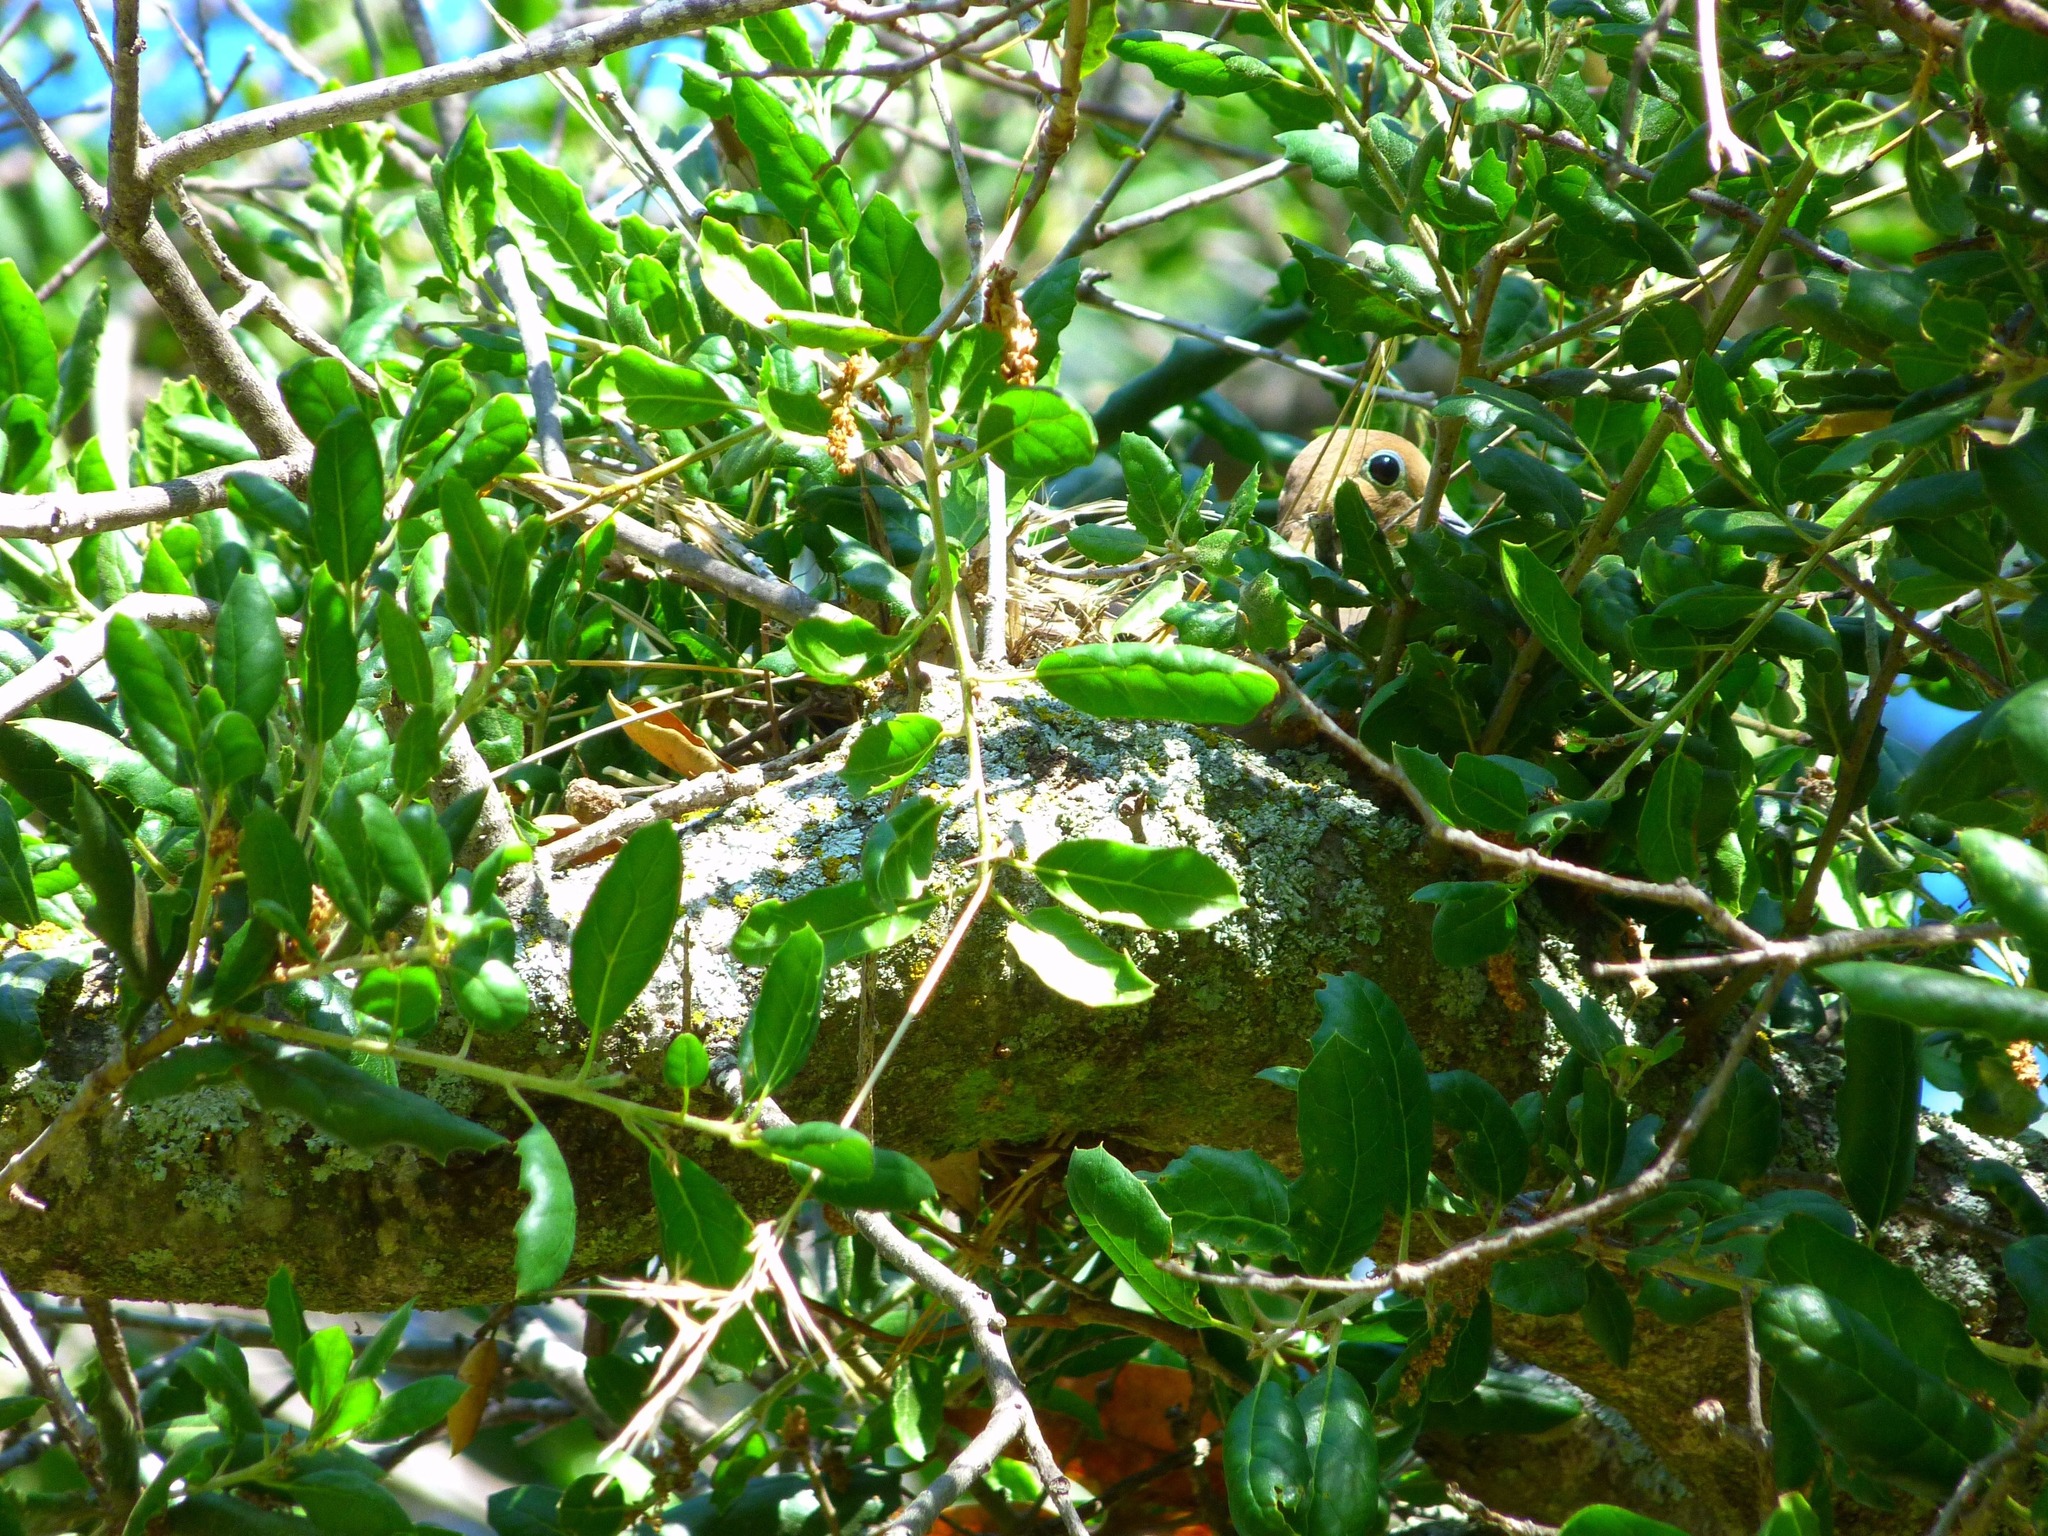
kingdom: Animalia
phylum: Chordata
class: Aves
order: Columbiformes
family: Columbidae
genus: Zenaida
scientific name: Zenaida macroura
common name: Mourning dove
